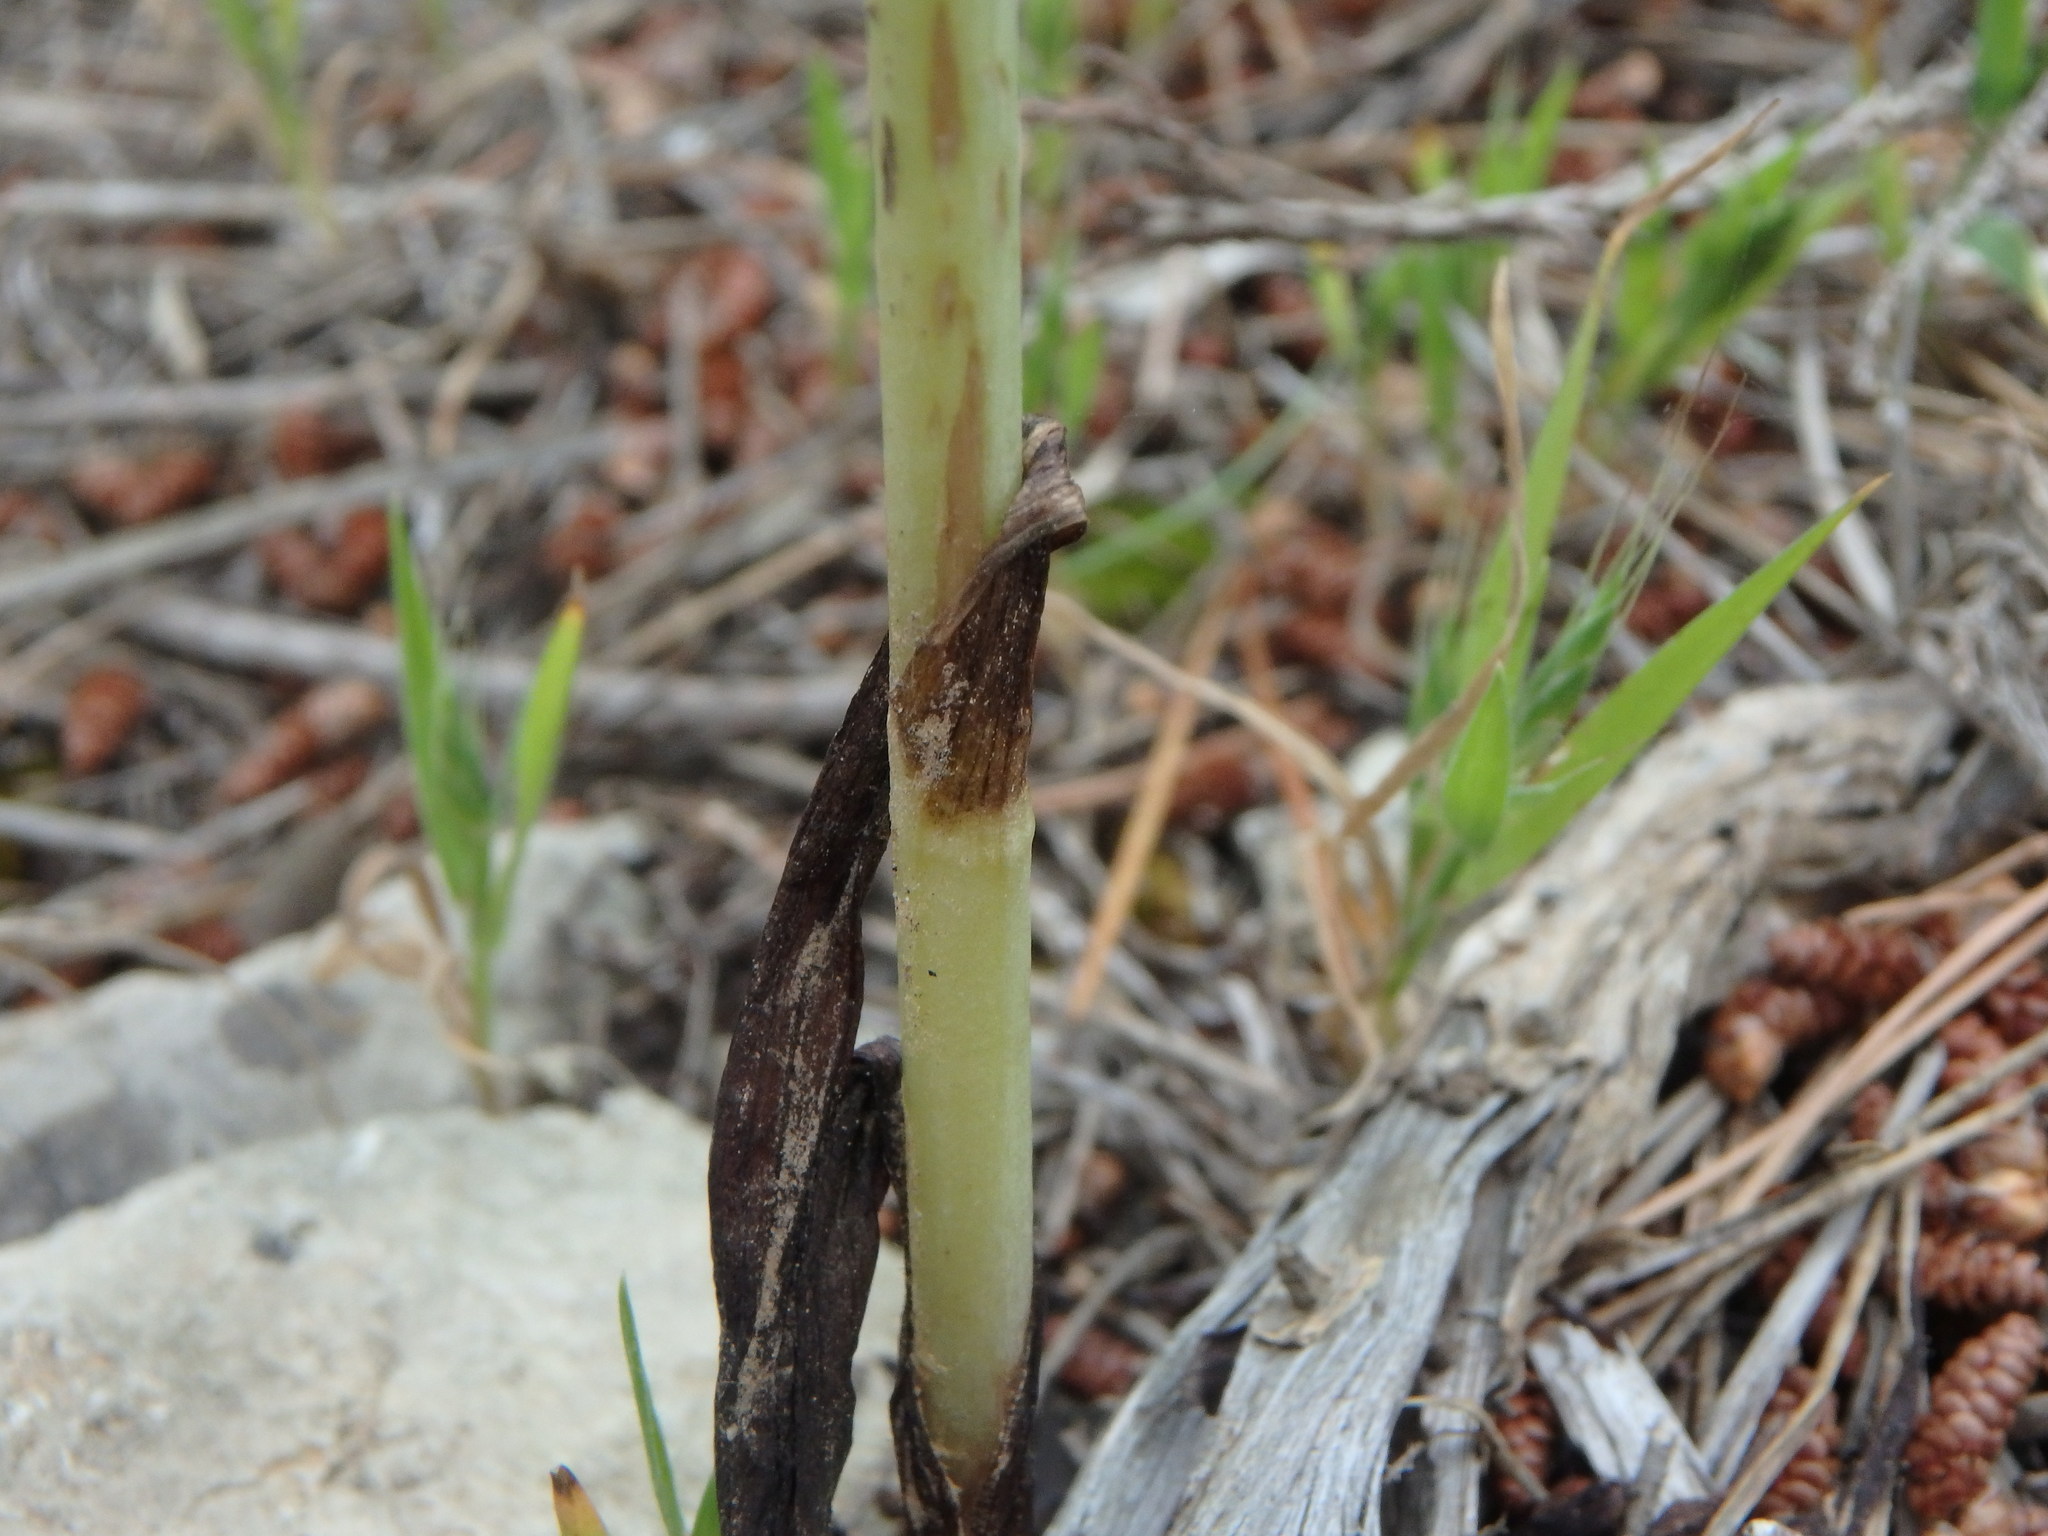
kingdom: Plantae
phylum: Tracheophyta
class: Liliopsida
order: Asparagales
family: Orchidaceae
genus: Ophrys
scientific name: Ophrys fusca
